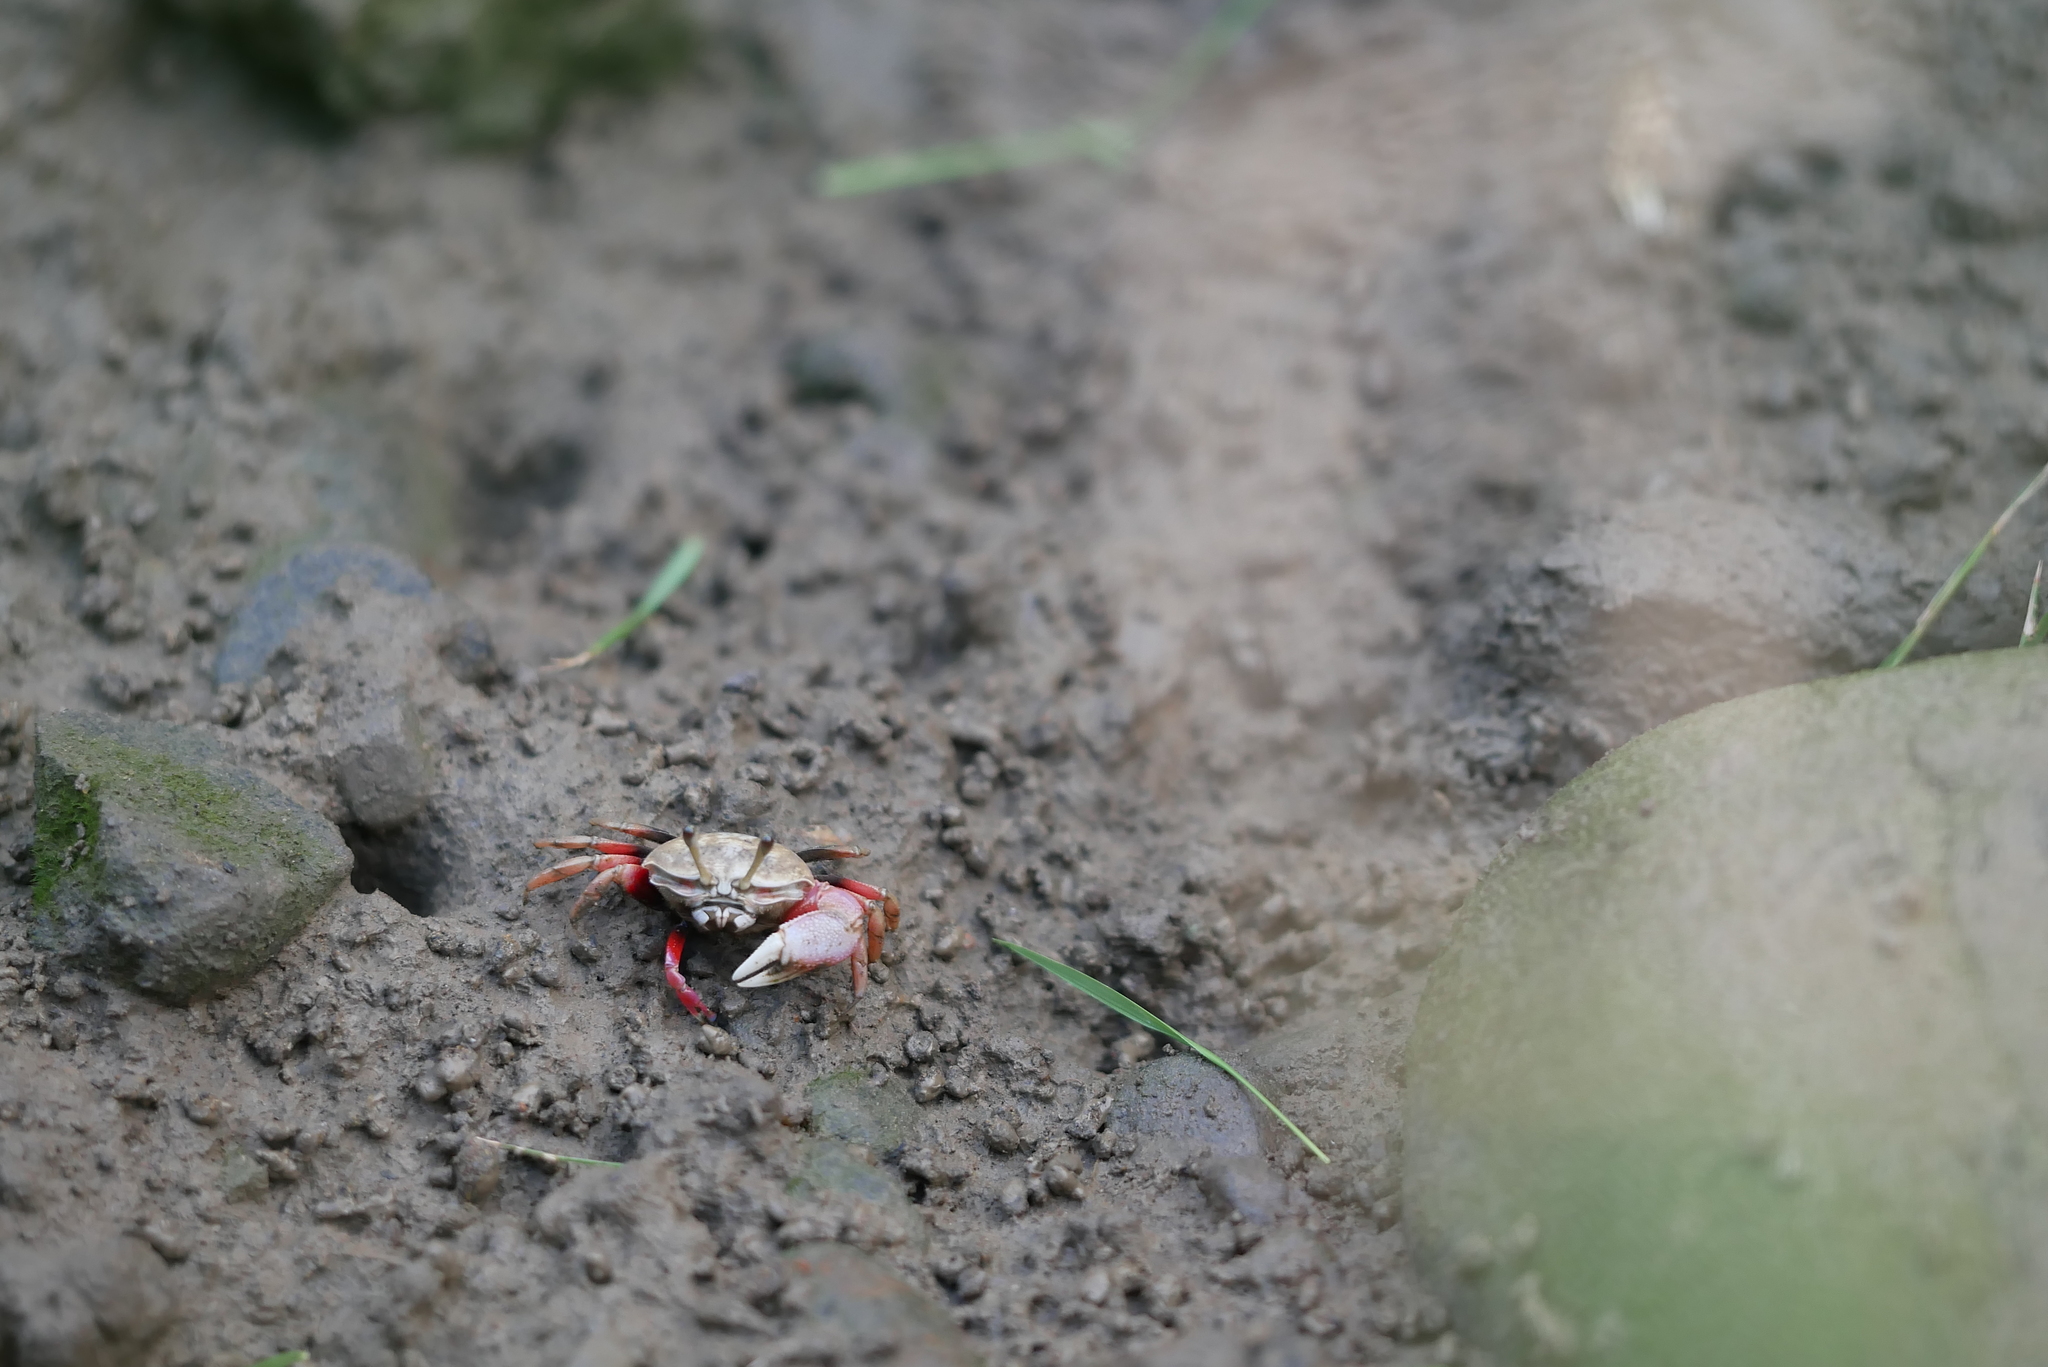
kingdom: Animalia
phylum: Arthropoda
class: Malacostraca
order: Decapoda
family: Ocypodidae
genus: Tubuca
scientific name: Tubuca arcuata
